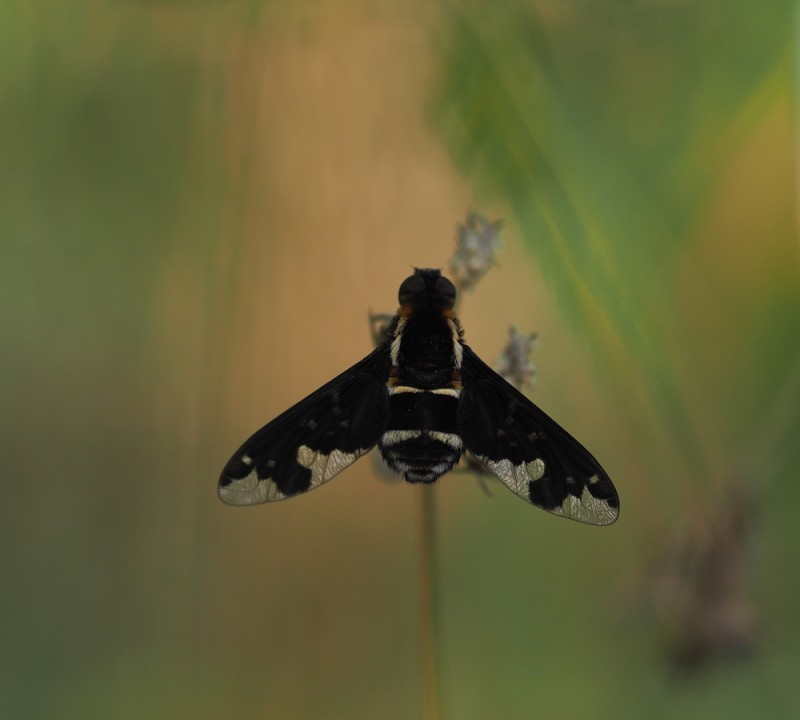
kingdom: Animalia
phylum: Arthropoda
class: Insecta
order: Diptera
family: Bombyliidae
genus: Hemipenthes
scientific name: Hemipenthes maura
